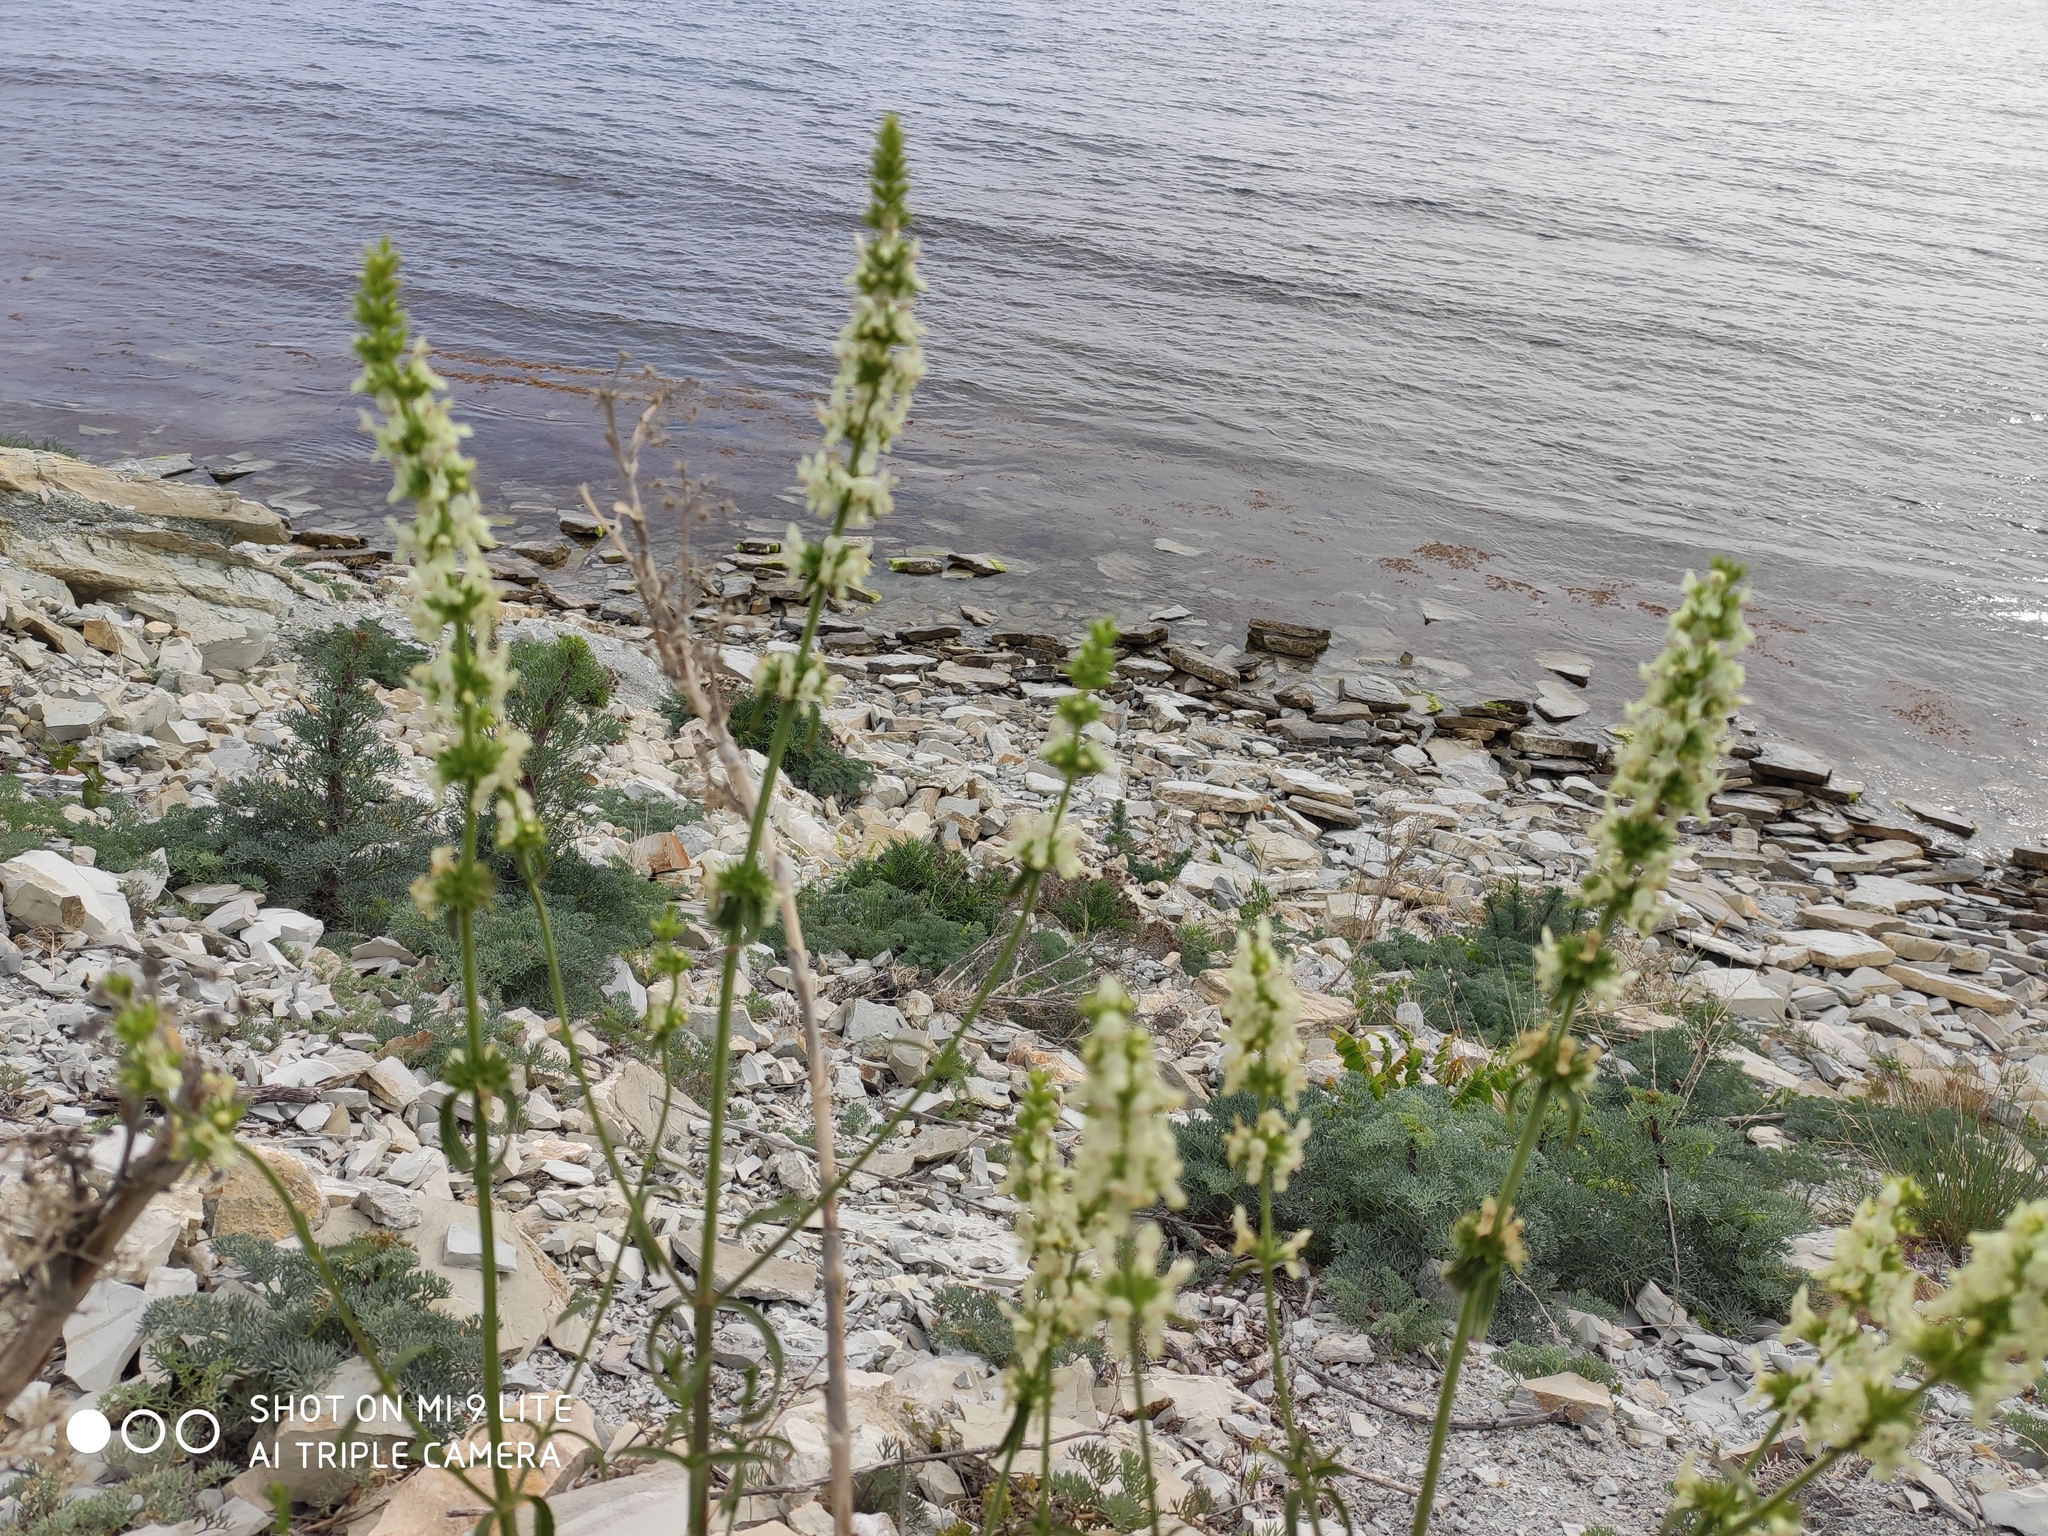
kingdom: Plantae
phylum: Tracheophyta
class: Magnoliopsida
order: Lamiales
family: Lamiaceae
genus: Stachys
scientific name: Stachys atherocalyx
